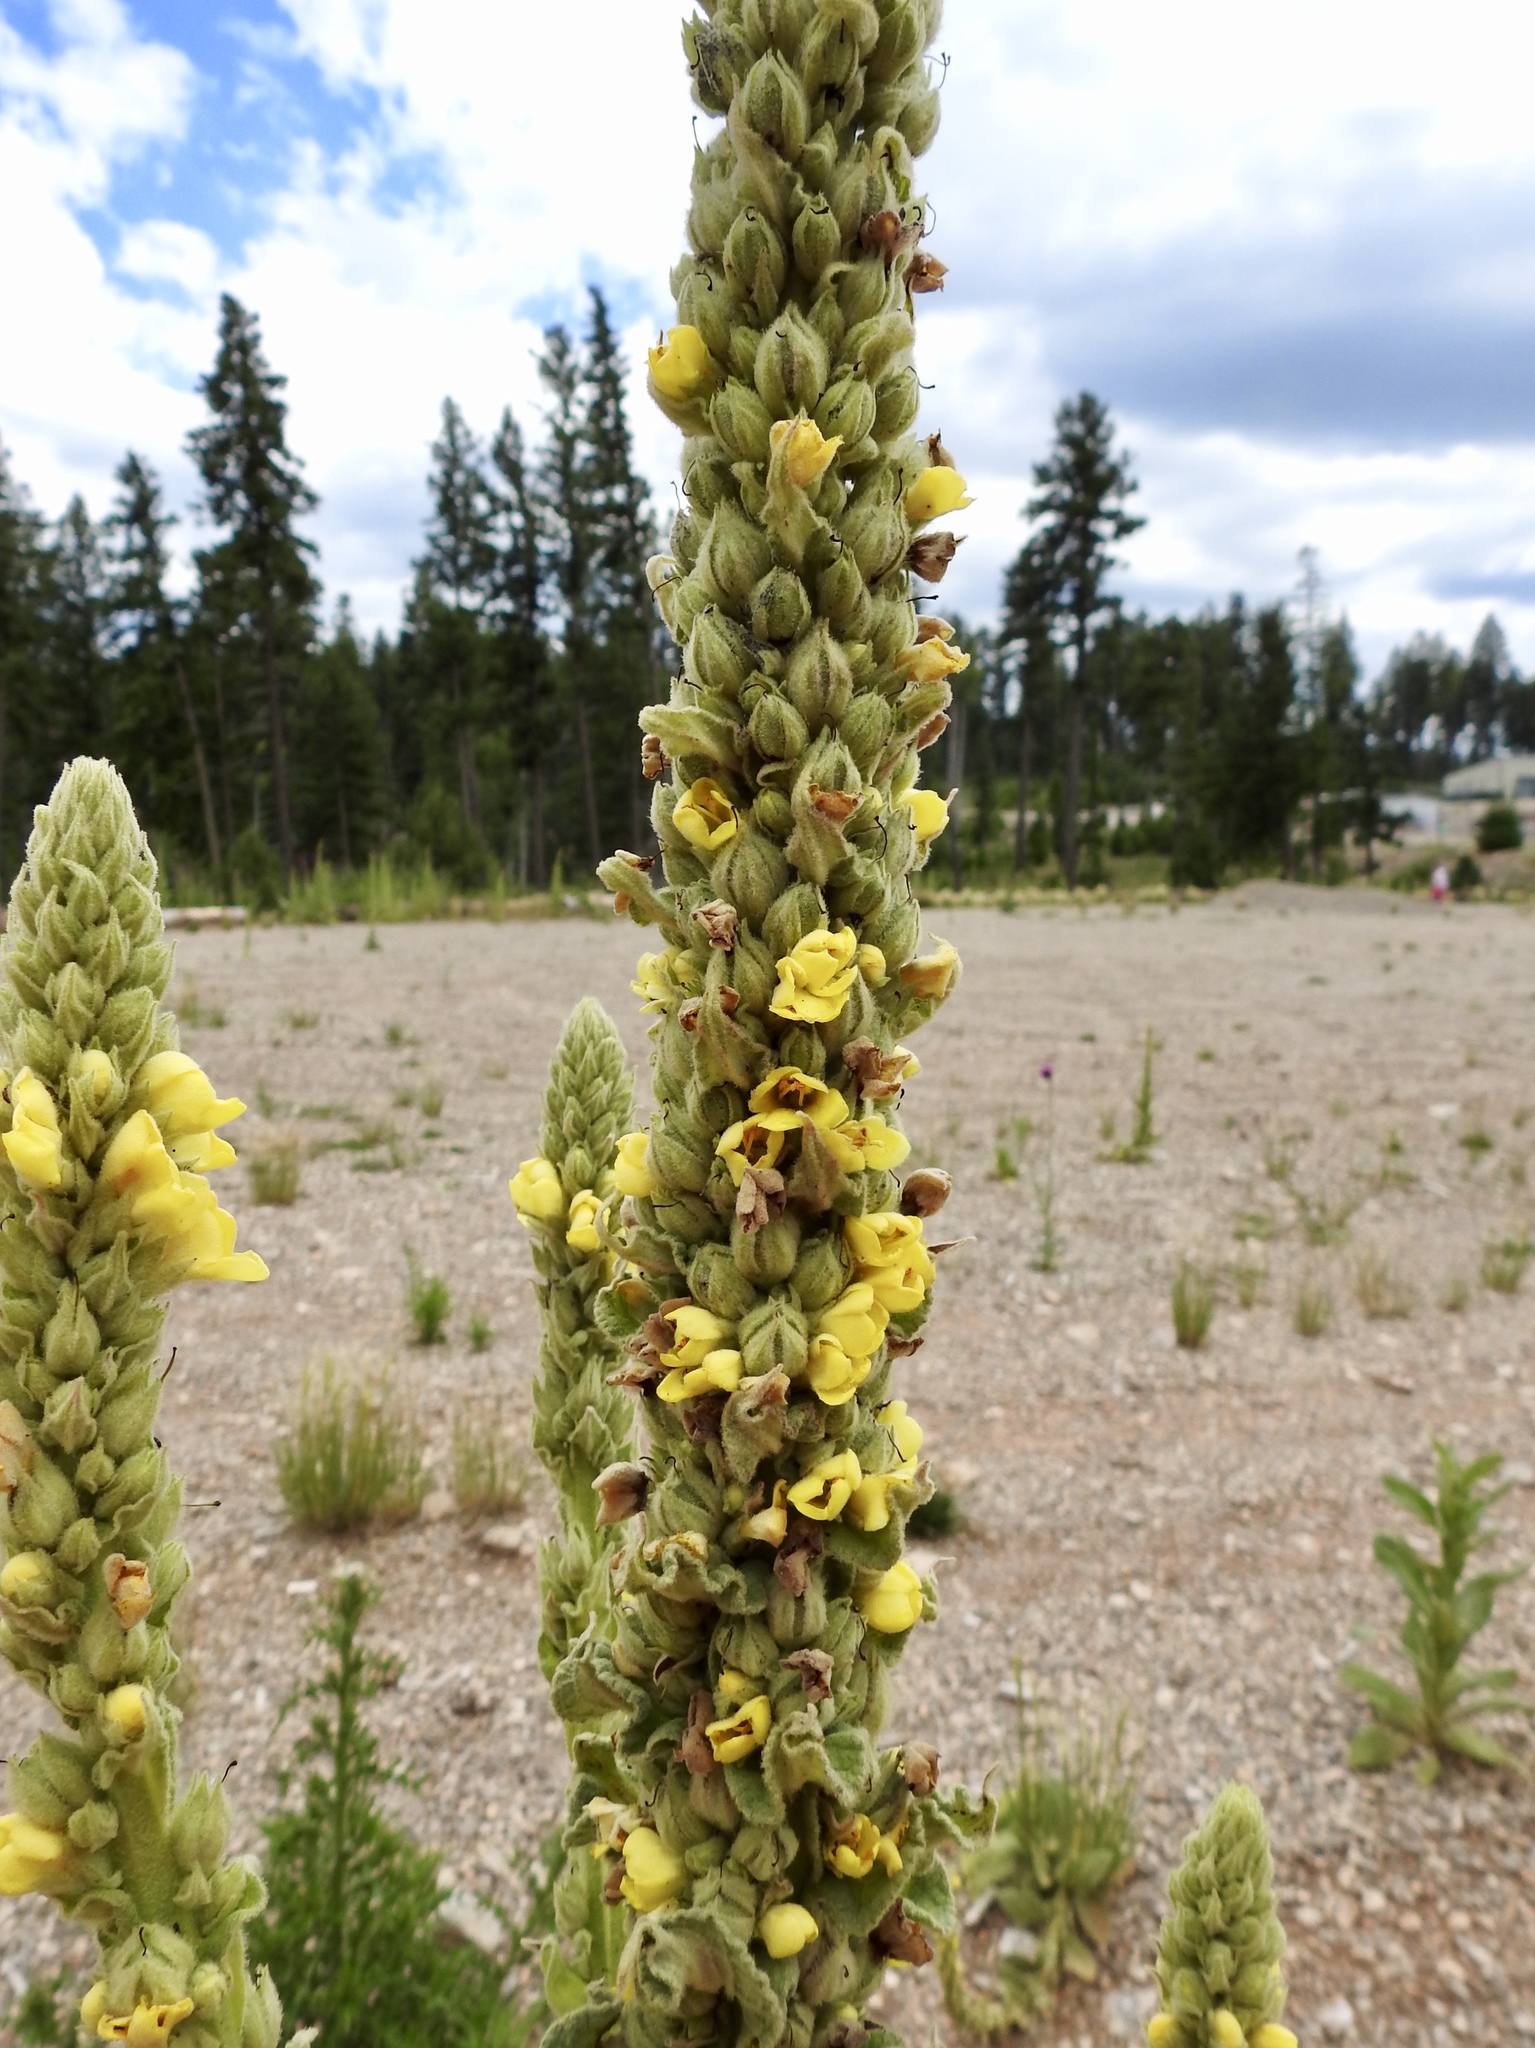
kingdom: Plantae
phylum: Tracheophyta
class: Magnoliopsida
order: Lamiales
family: Scrophulariaceae
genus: Verbascum
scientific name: Verbascum thapsus
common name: Common mullein
